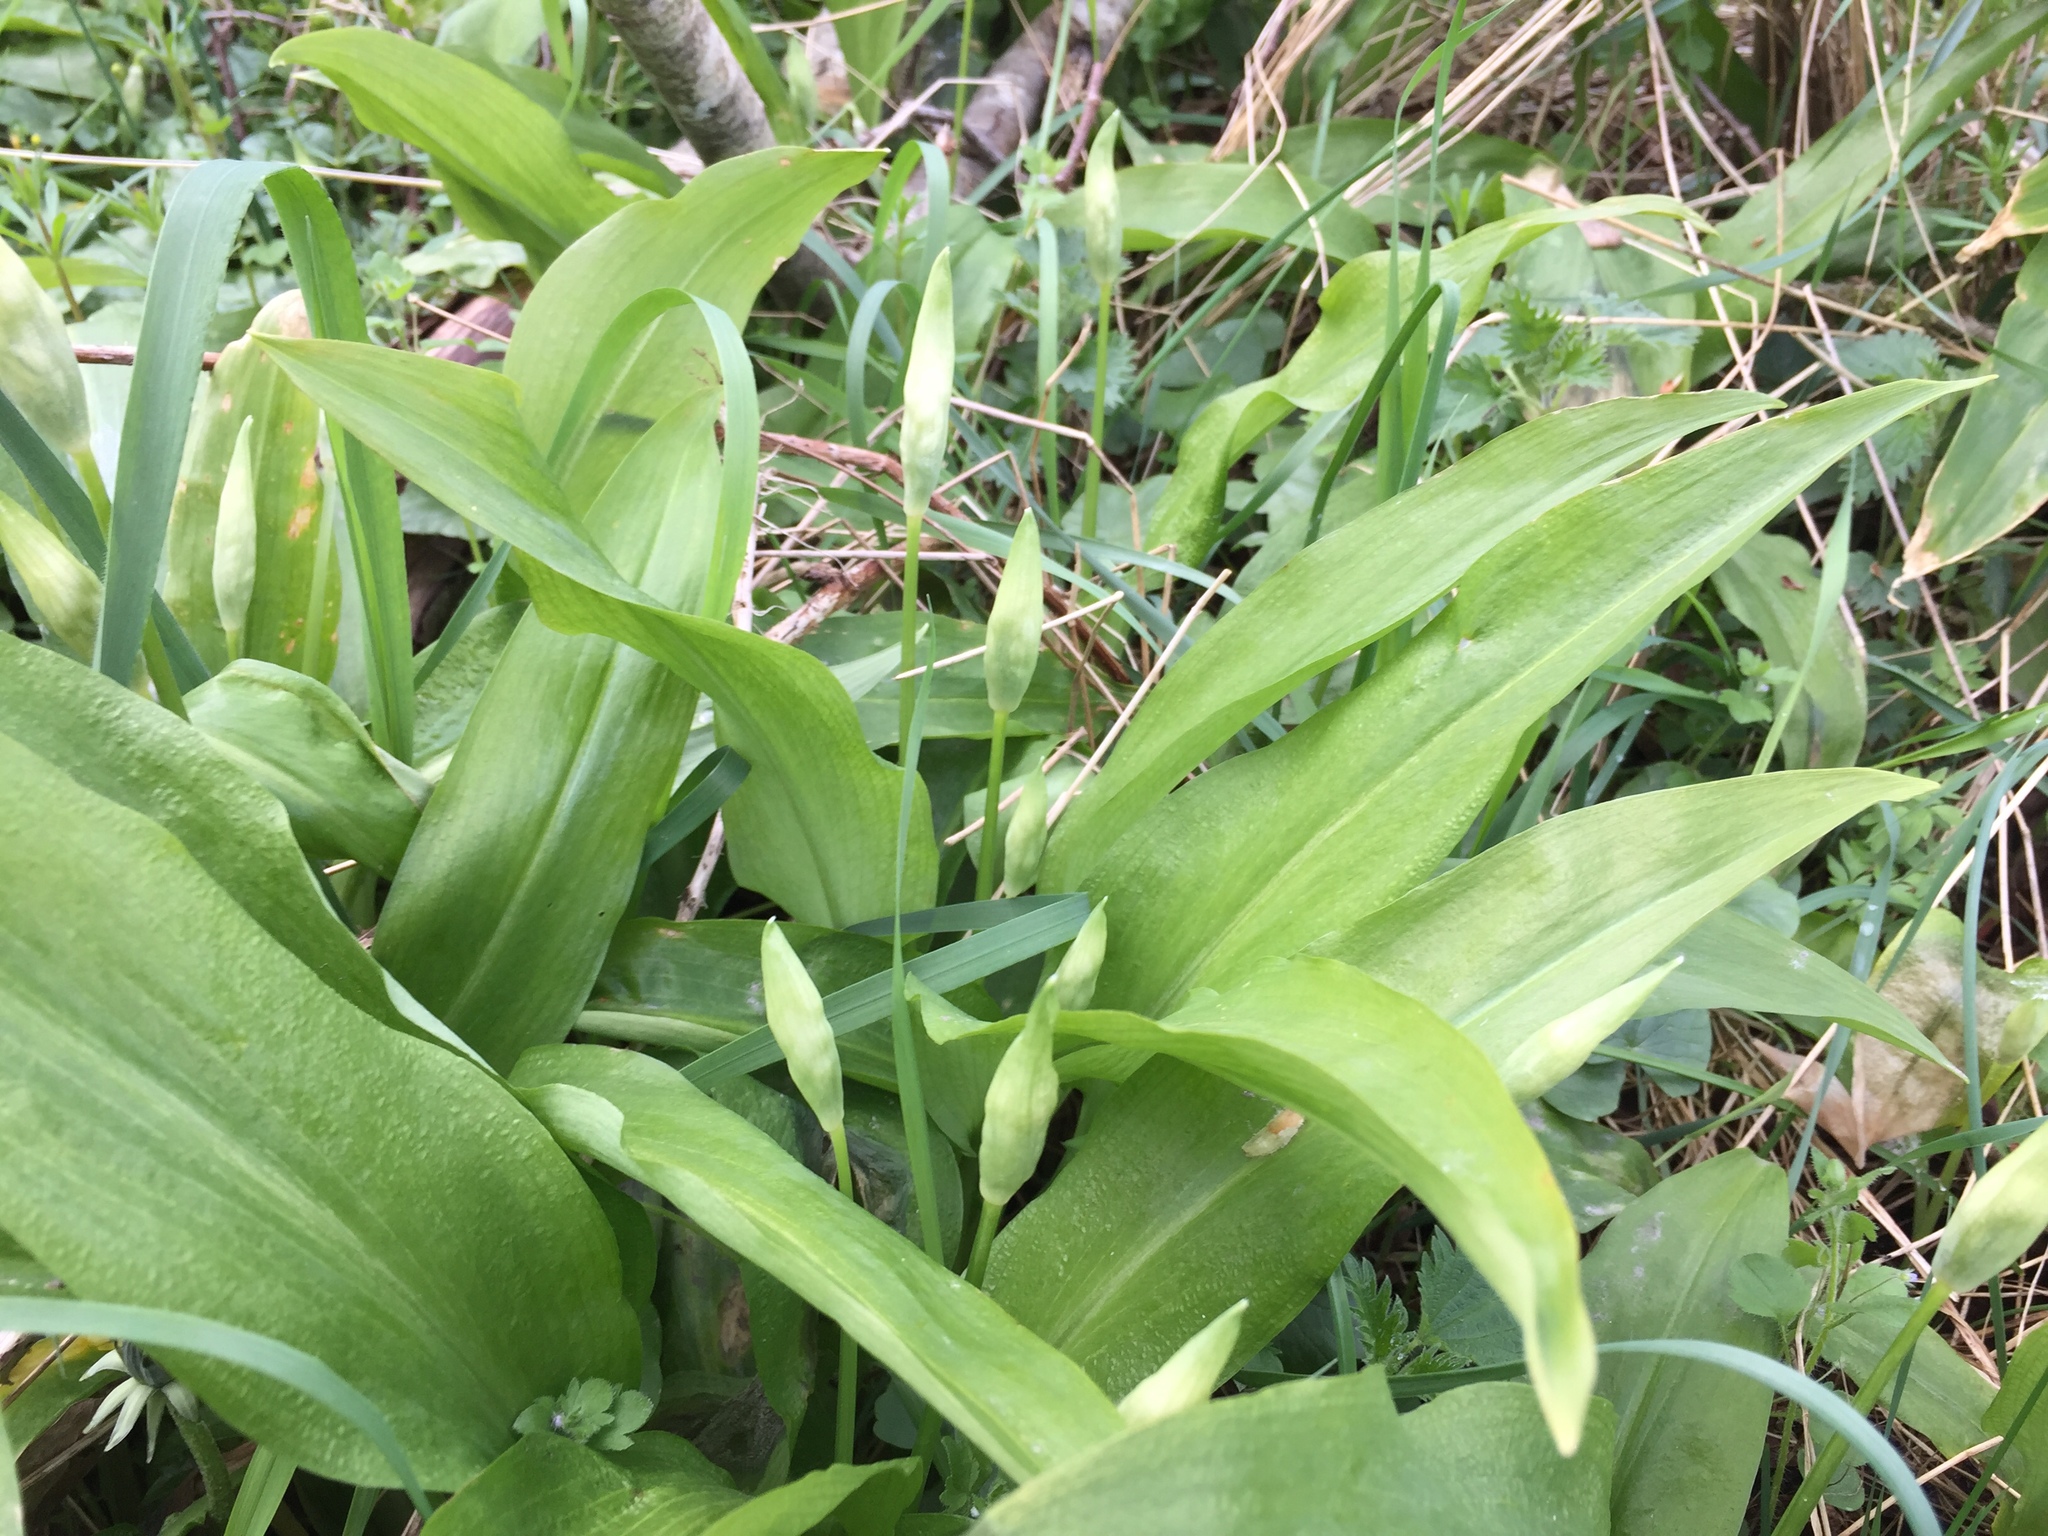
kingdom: Plantae
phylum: Tracheophyta
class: Liliopsida
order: Asparagales
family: Amaryllidaceae
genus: Allium
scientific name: Allium ursinum
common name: Ramsons
